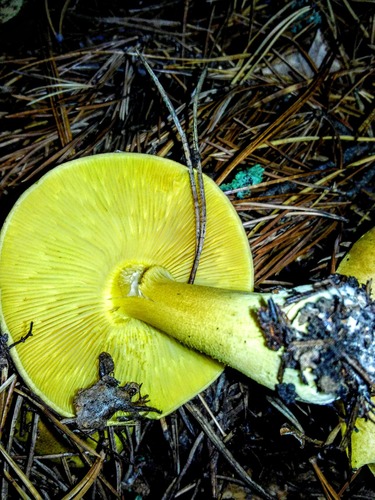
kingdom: Fungi
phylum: Basidiomycota
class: Agaricomycetes
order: Agaricales
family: Tricholomataceae
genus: Tricholoma
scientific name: Tricholoma equestre
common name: Yellow knight
